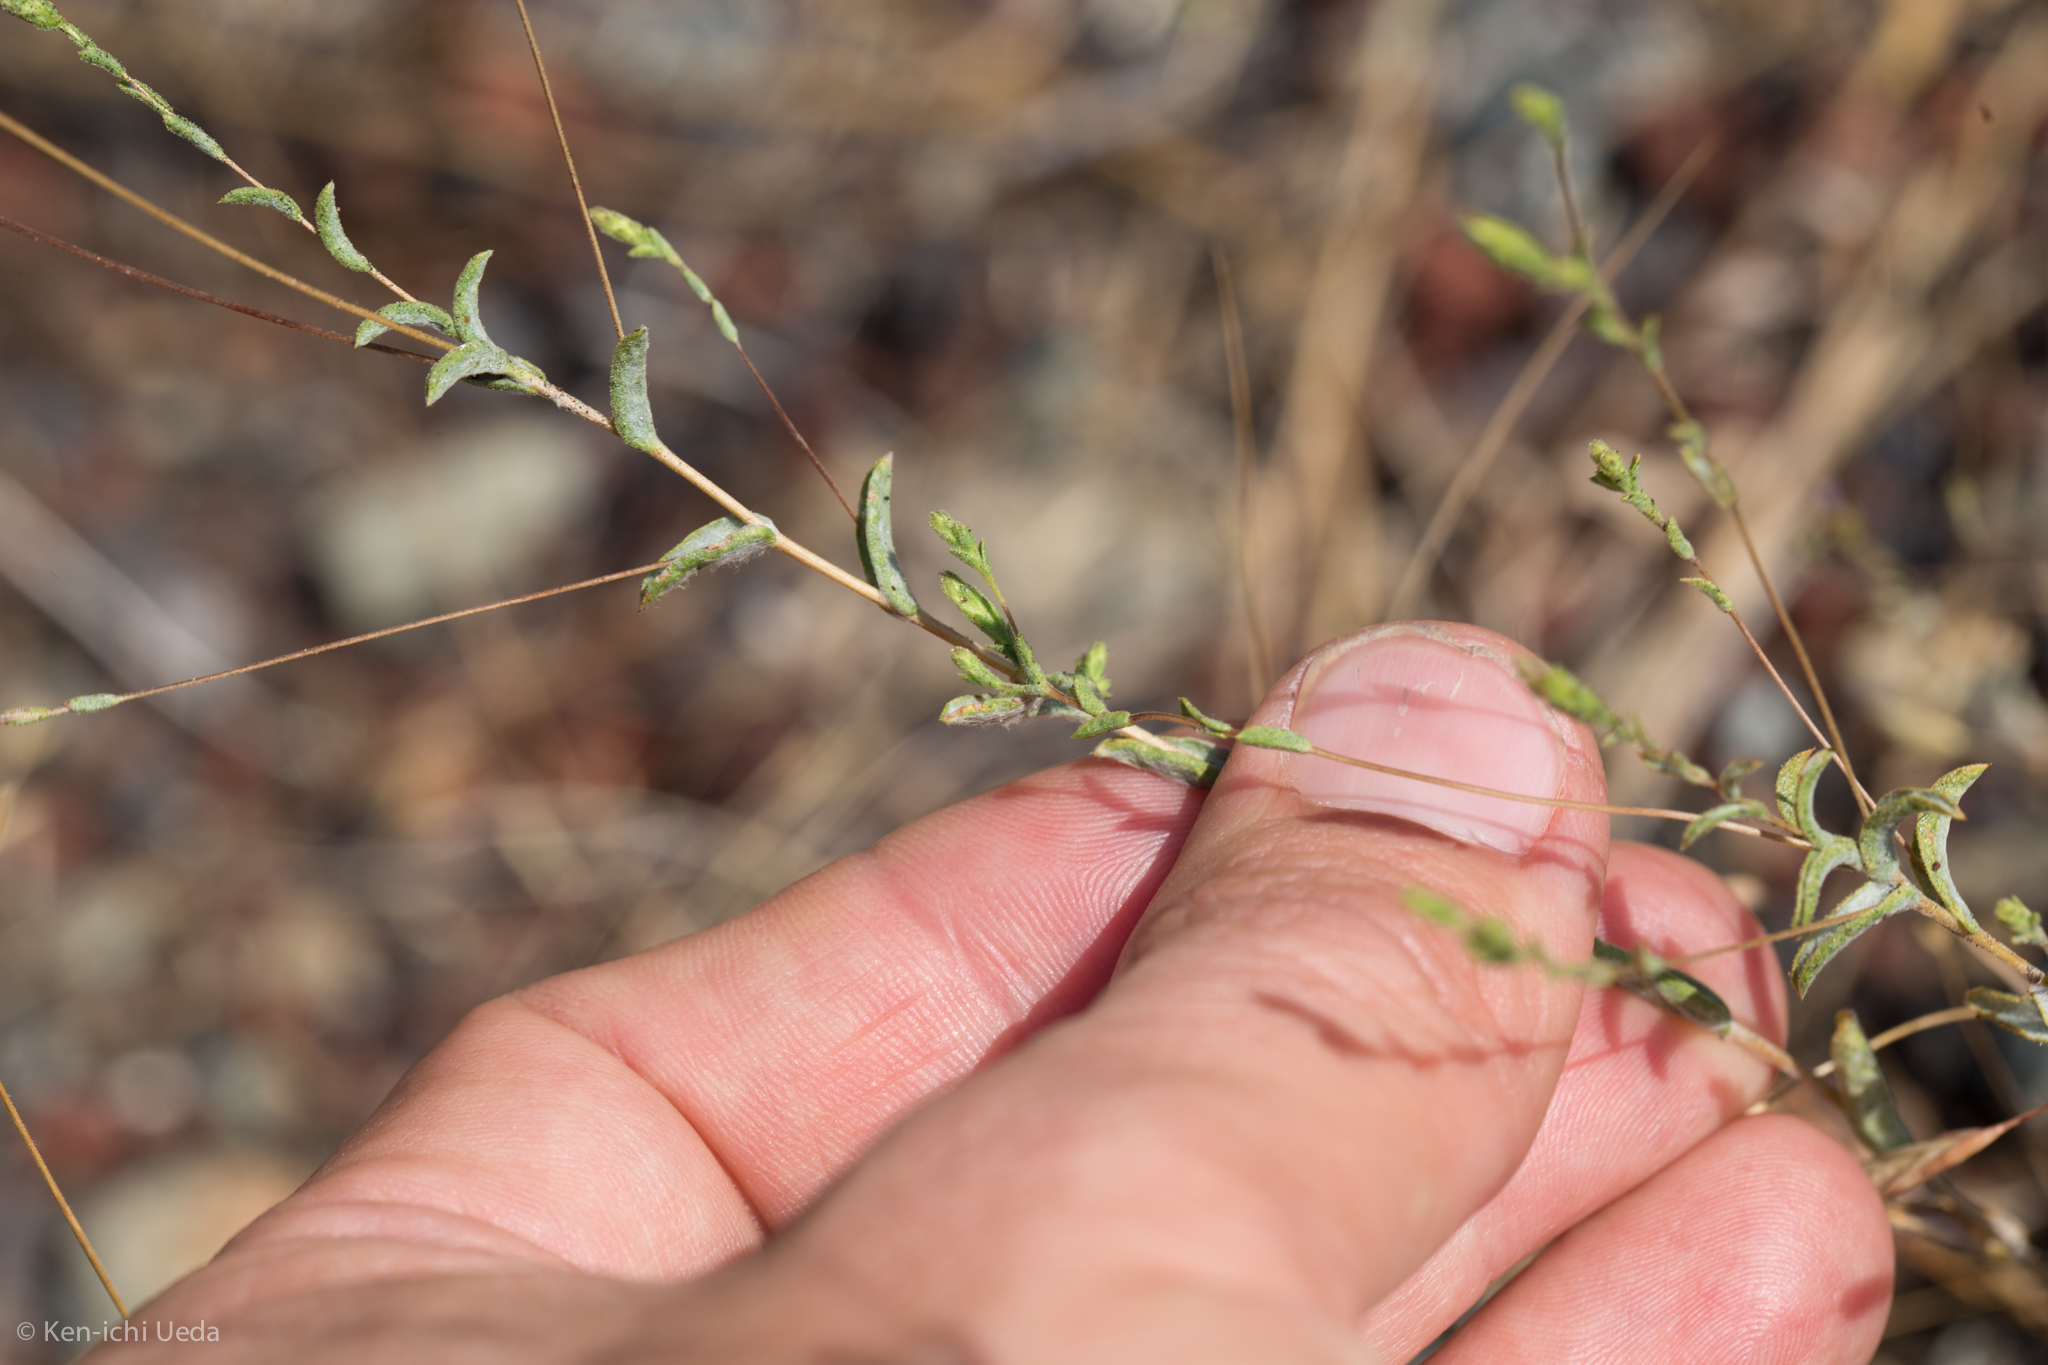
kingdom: Plantae
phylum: Tracheophyta
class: Magnoliopsida
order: Asterales
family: Asteraceae
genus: Lessingia
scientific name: Lessingia nemaclada
